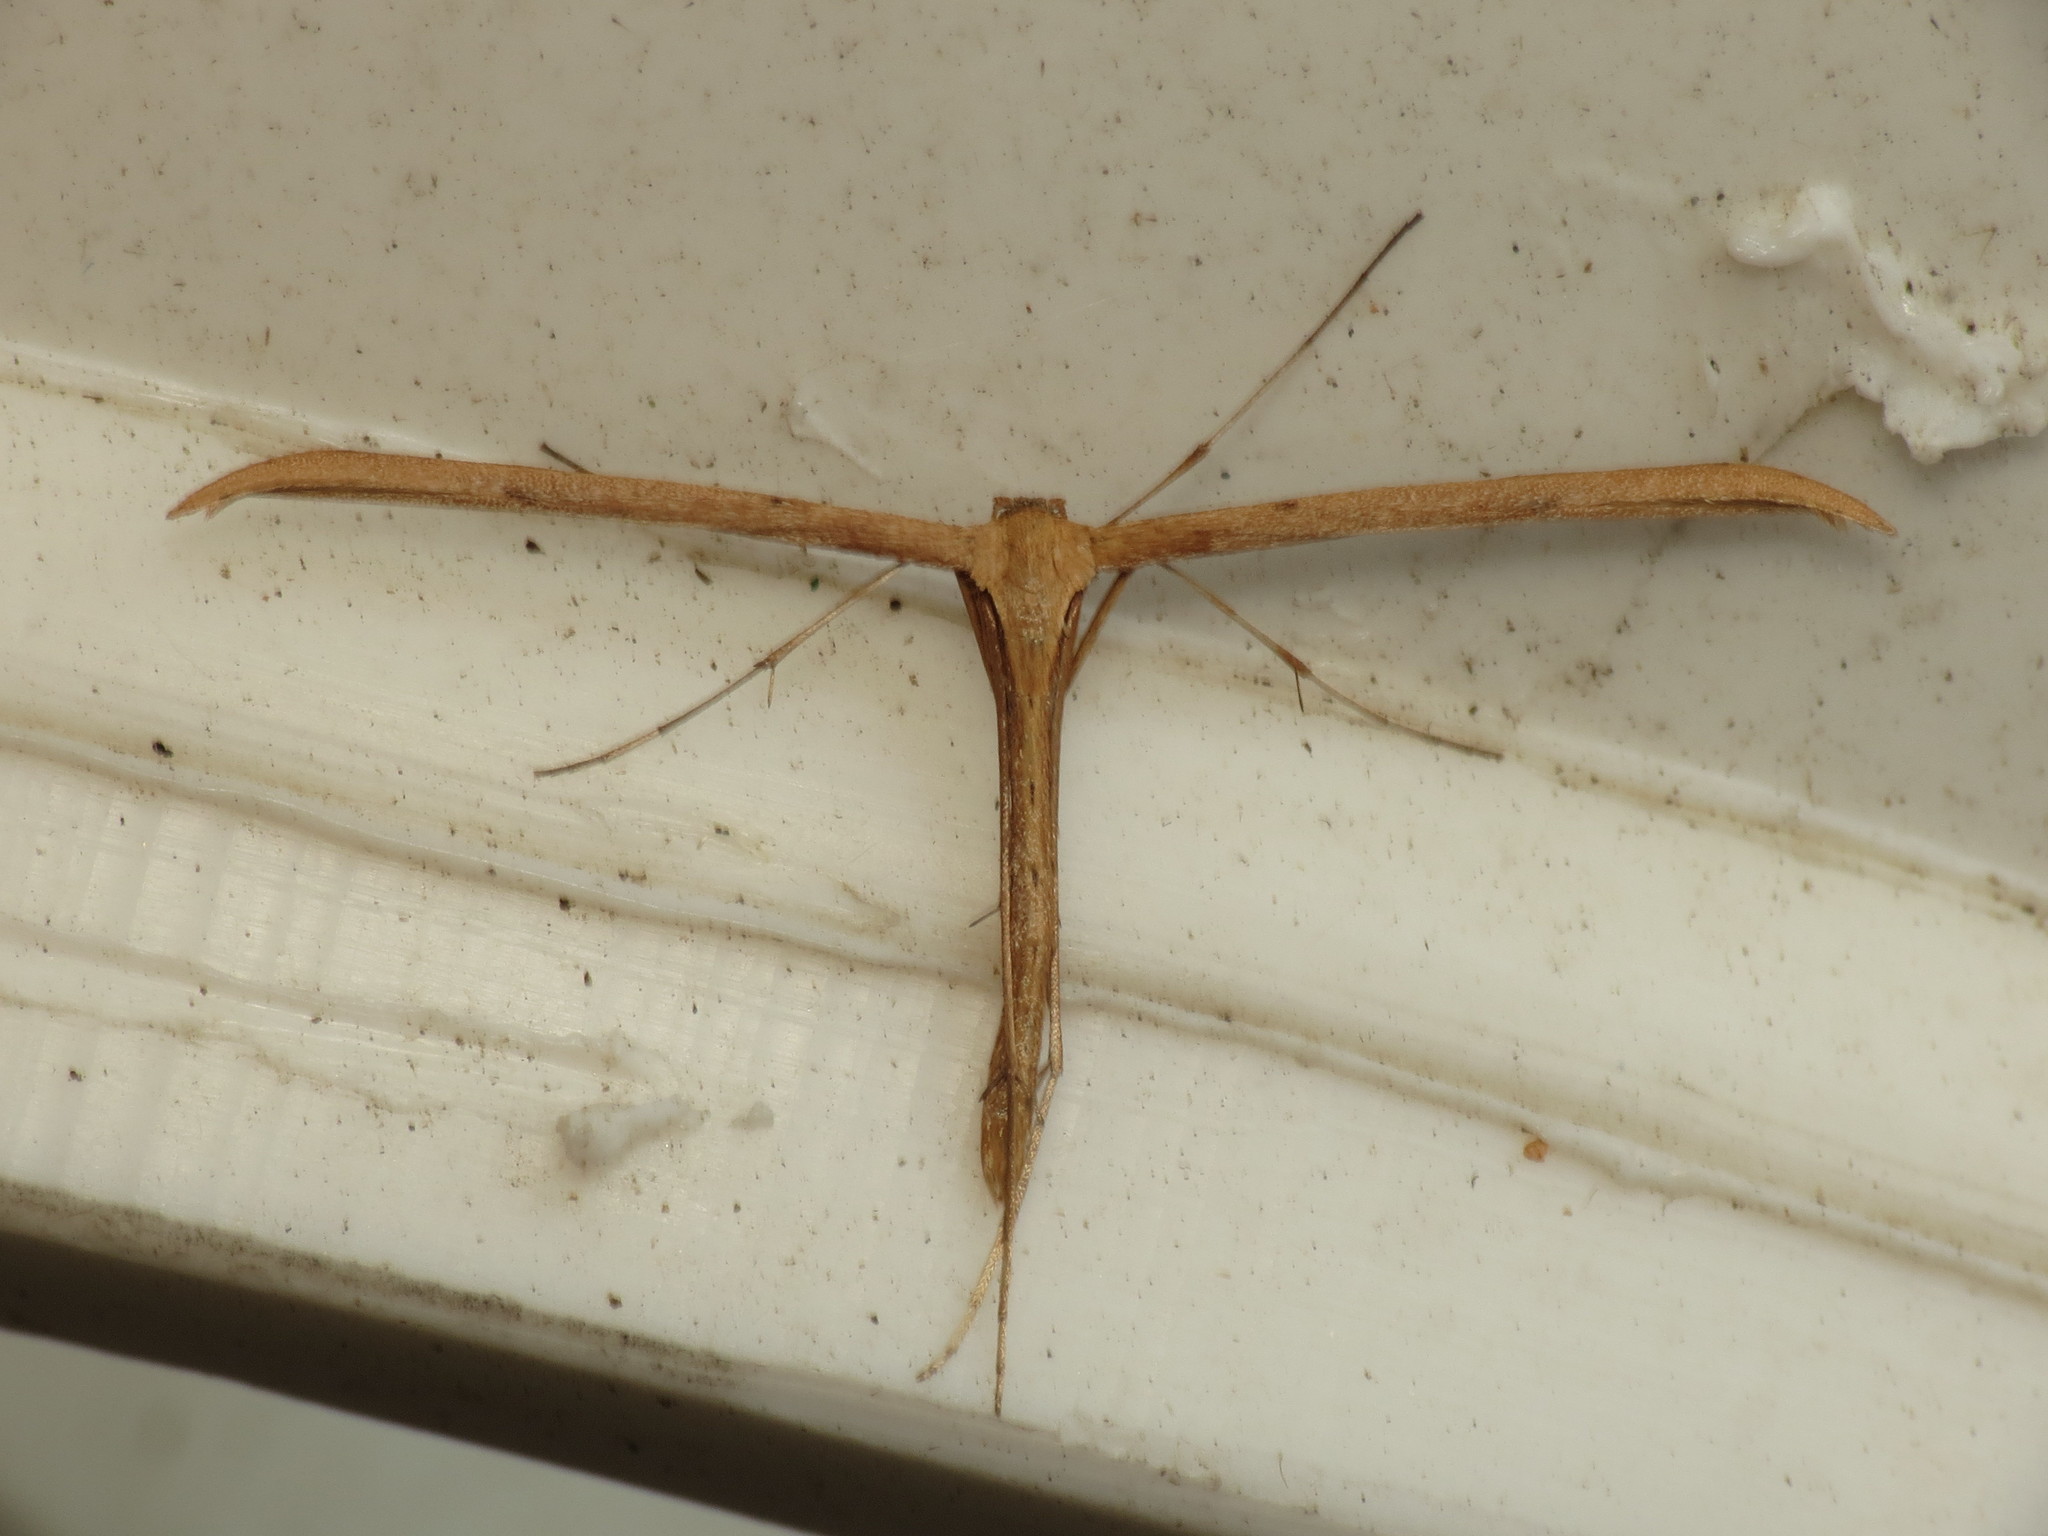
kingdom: Animalia
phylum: Arthropoda
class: Insecta
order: Lepidoptera
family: Pterophoridae
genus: Emmelina
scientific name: Emmelina monodactyla
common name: Common plume
